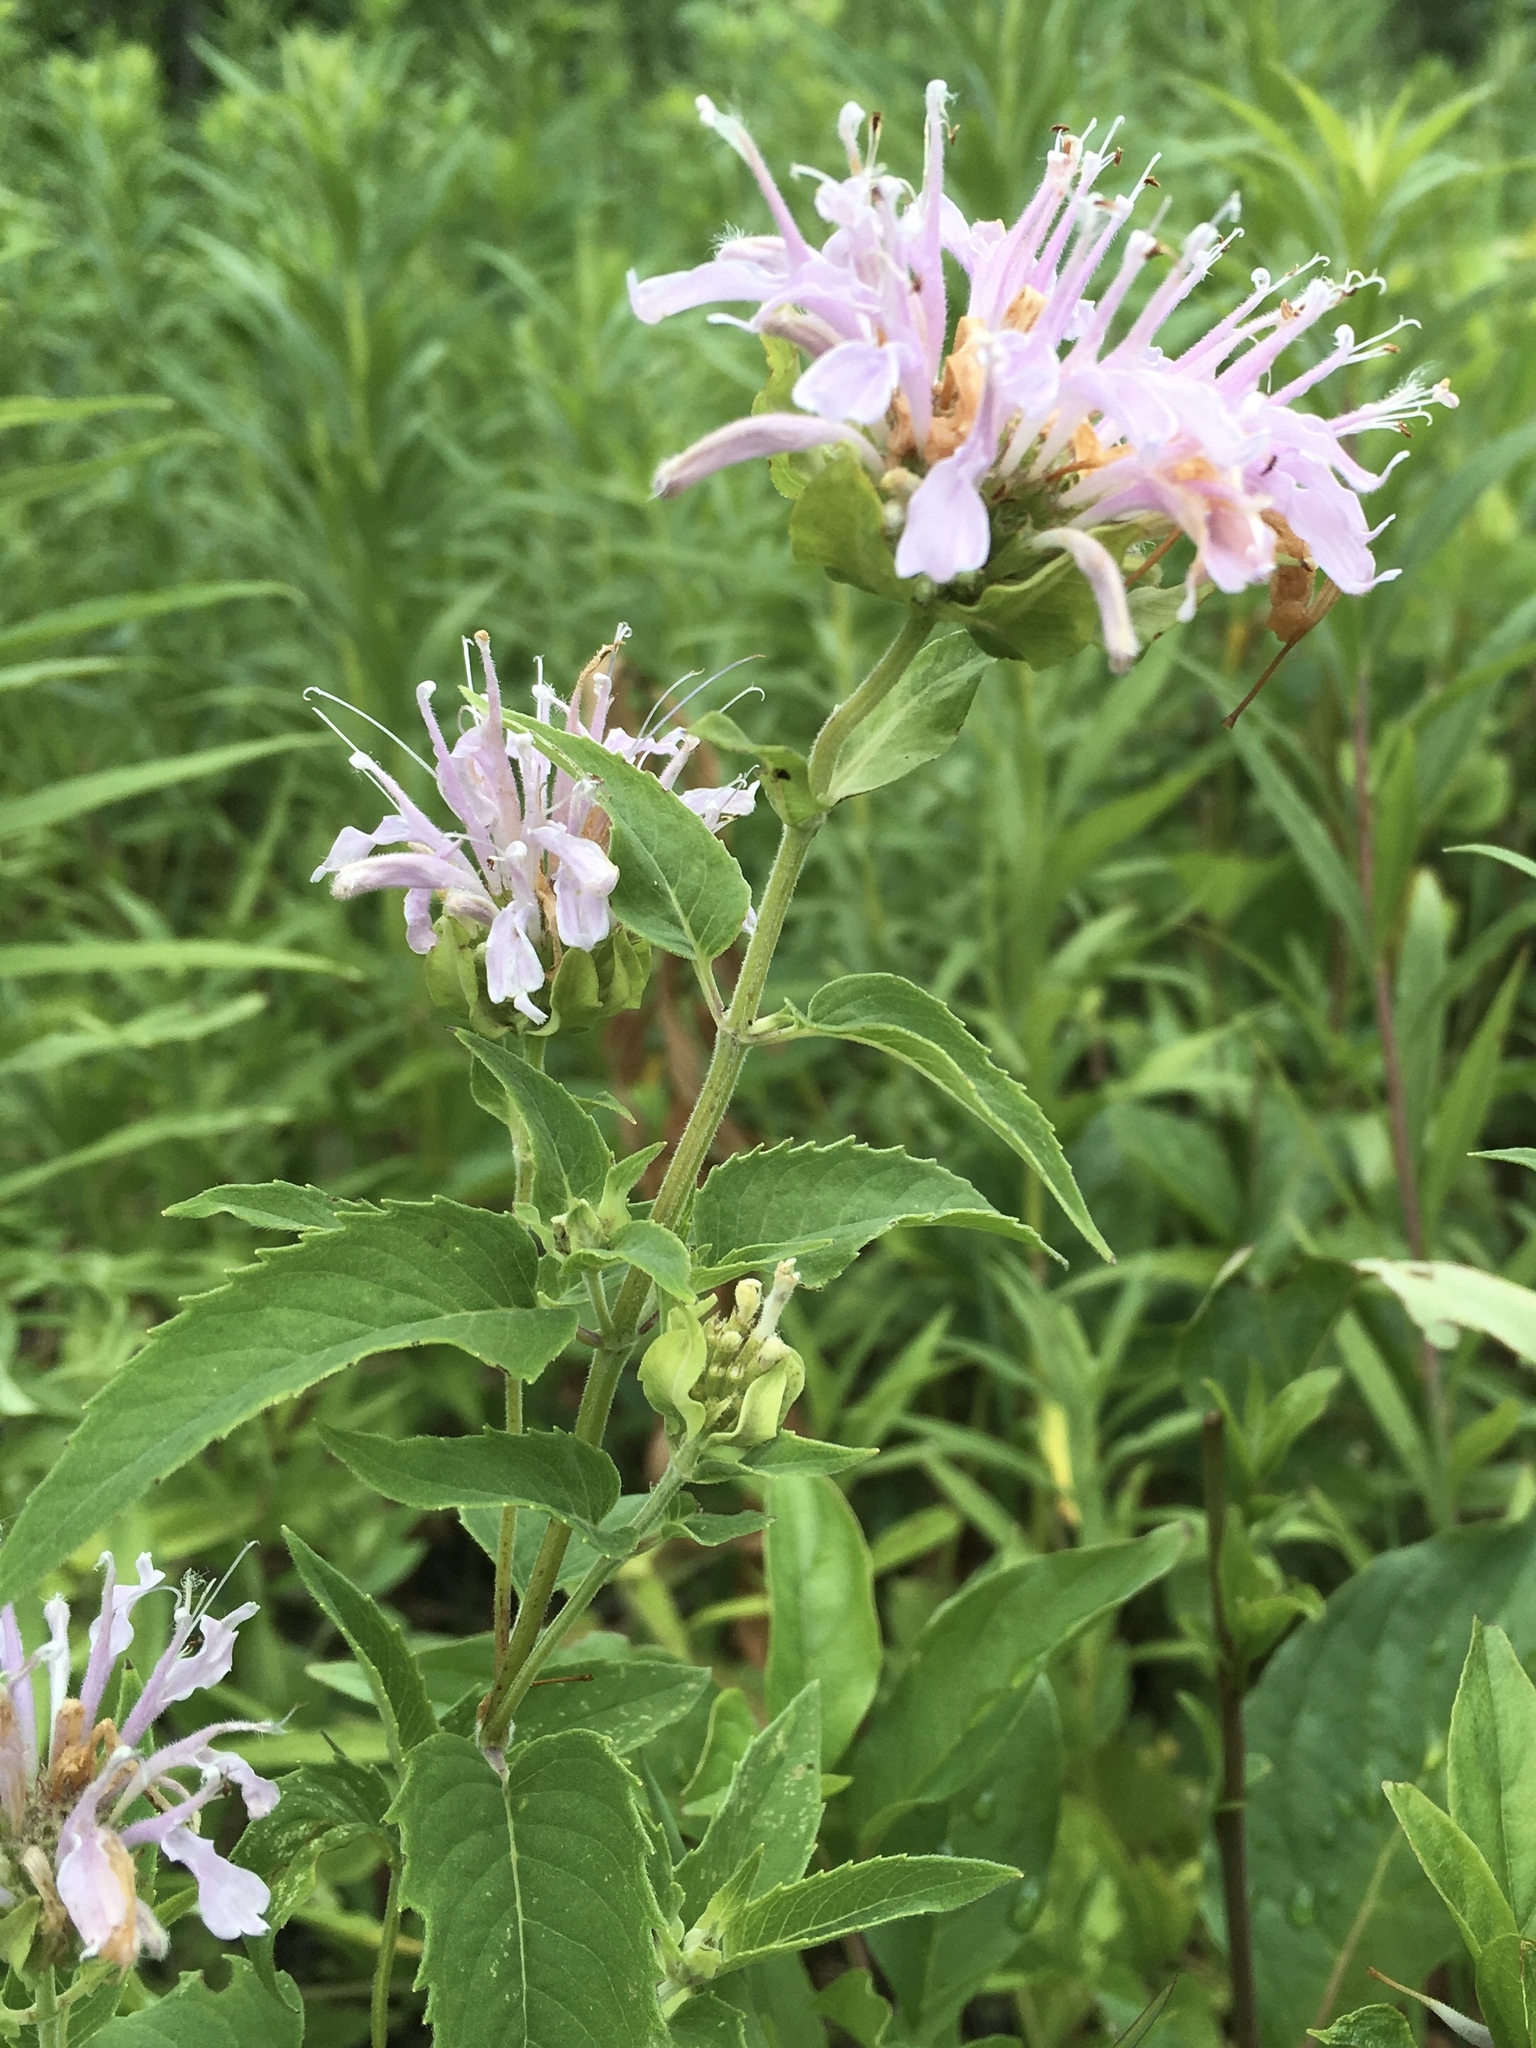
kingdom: Plantae
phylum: Tracheophyta
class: Magnoliopsida
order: Lamiales
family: Lamiaceae
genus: Monarda
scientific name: Monarda fistulosa
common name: Purple beebalm
